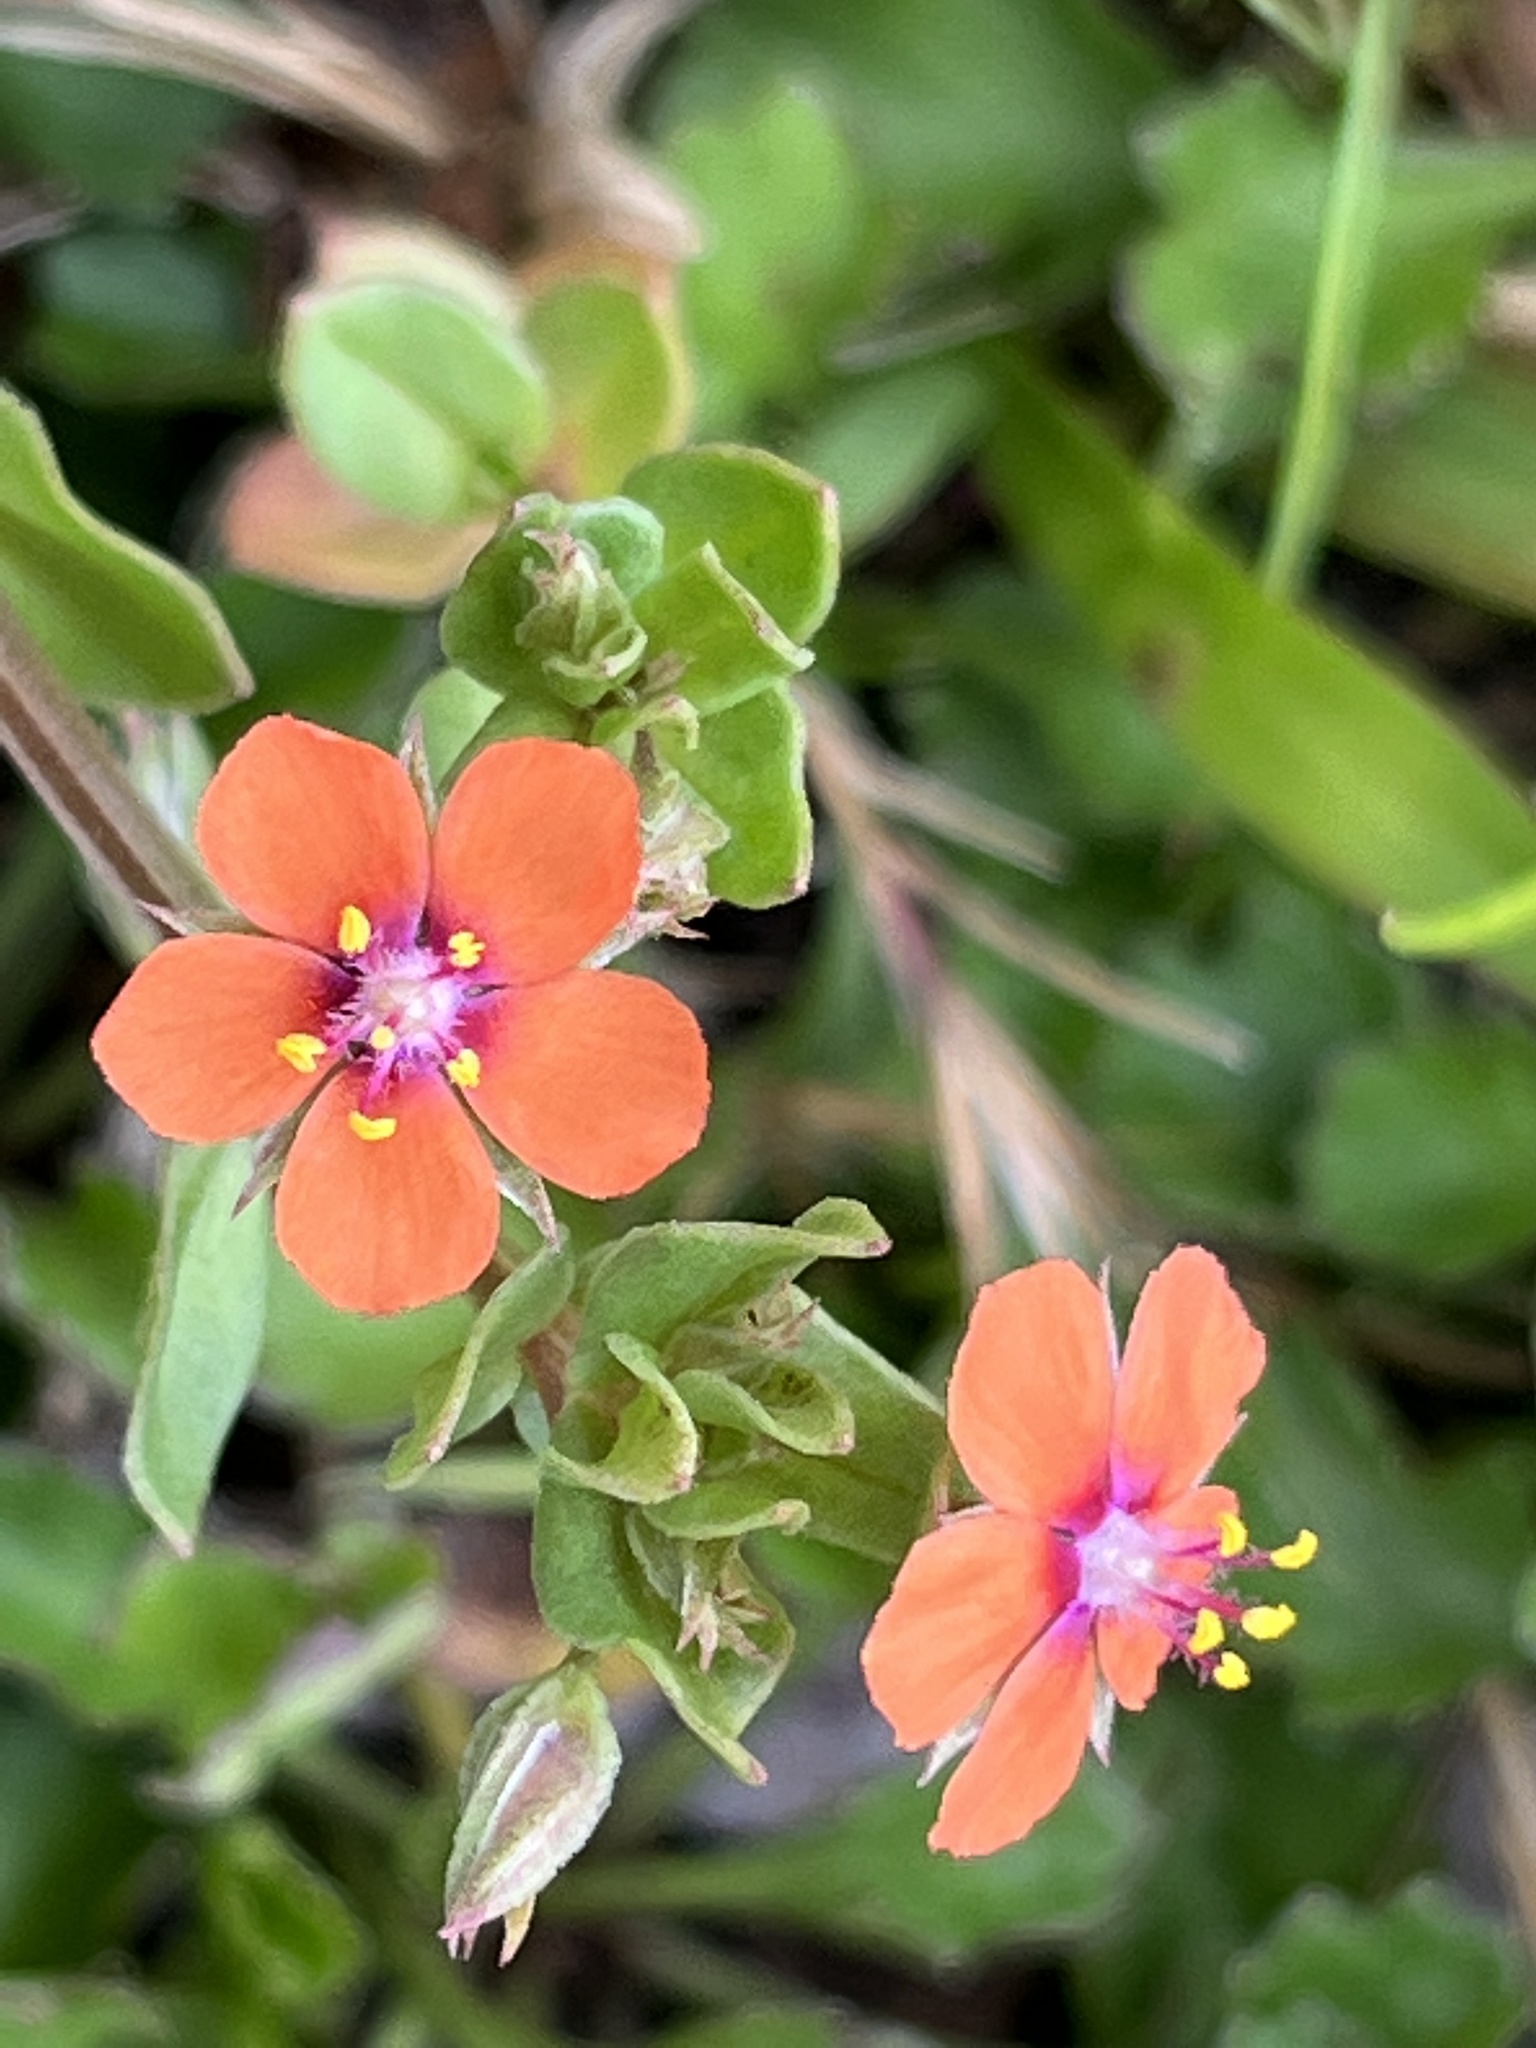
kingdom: Plantae
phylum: Tracheophyta
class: Magnoliopsida
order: Ericales
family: Primulaceae
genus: Lysimachia
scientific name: Lysimachia arvensis
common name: Scarlet pimpernel
